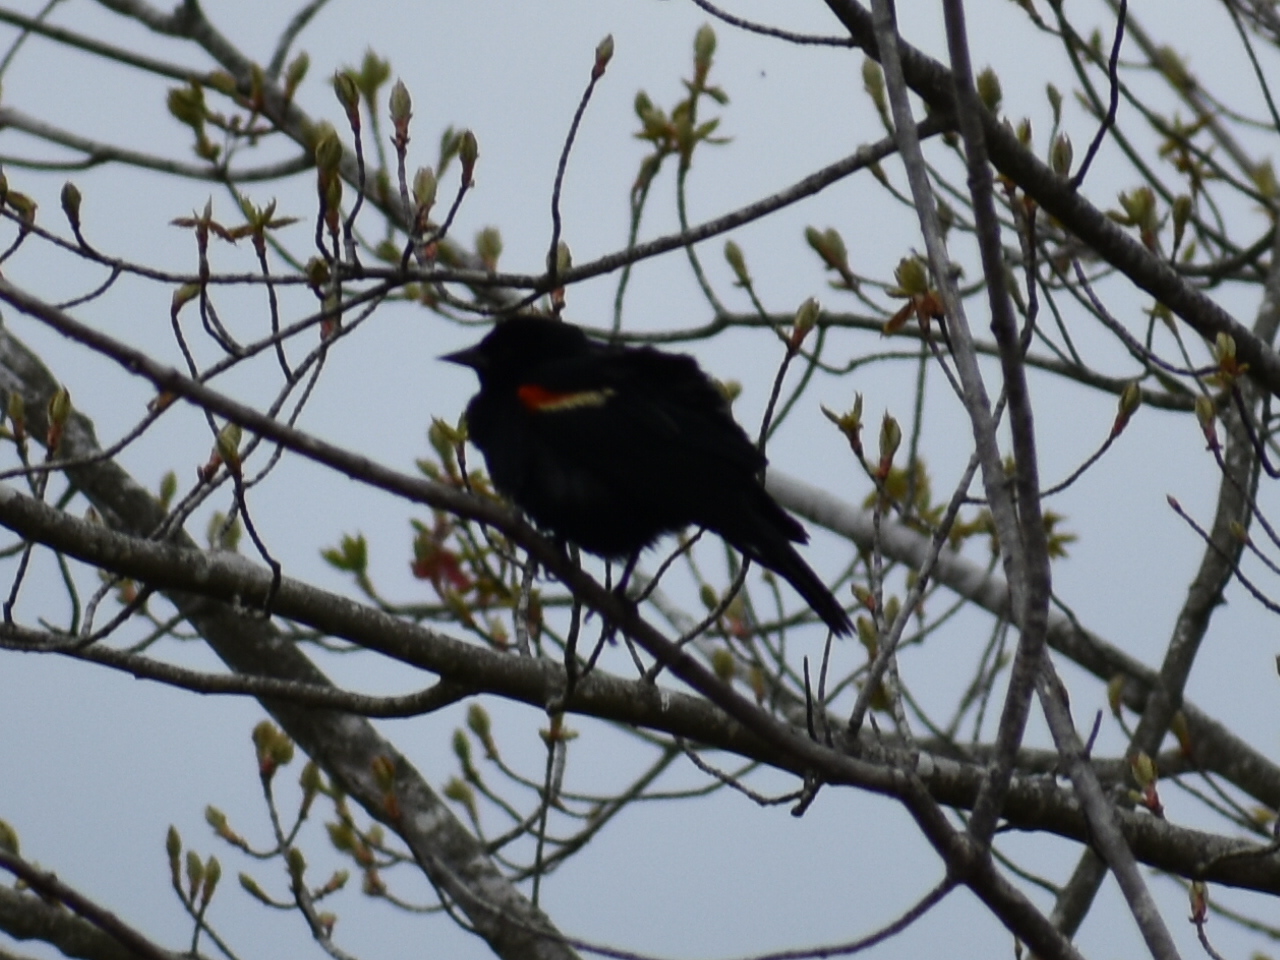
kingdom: Animalia
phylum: Chordata
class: Aves
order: Passeriformes
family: Icteridae
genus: Agelaius
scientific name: Agelaius phoeniceus
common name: Red-winged blackbird
